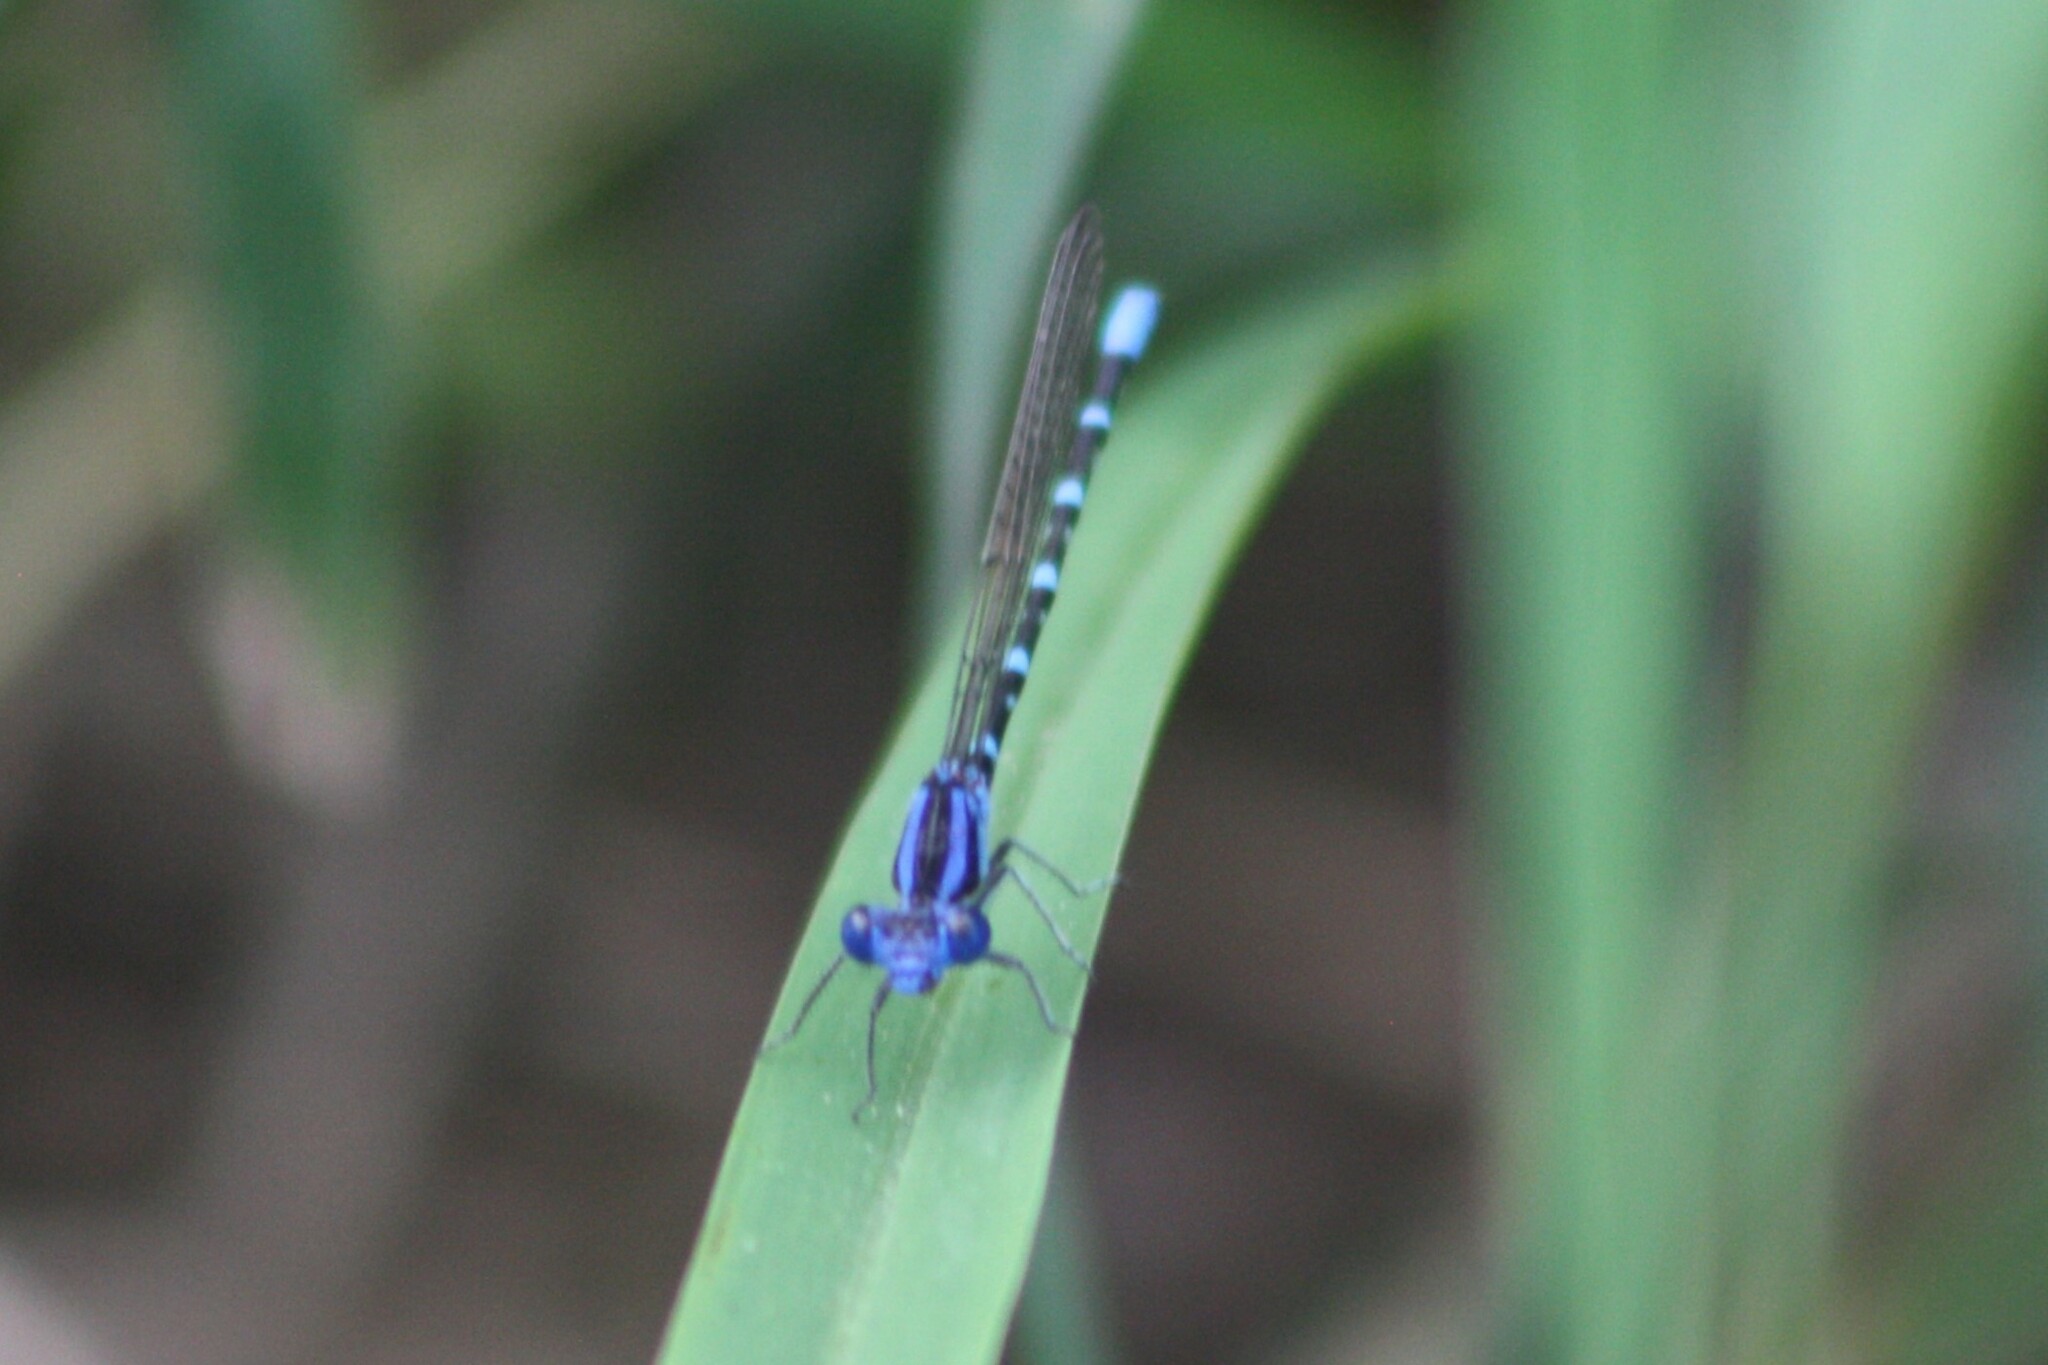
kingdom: Animalia
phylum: Arthropoda
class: Insecta
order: Odonata
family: Coenagrionidae
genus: Argia
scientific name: Argia sedula
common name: Blue-ringed dancer
